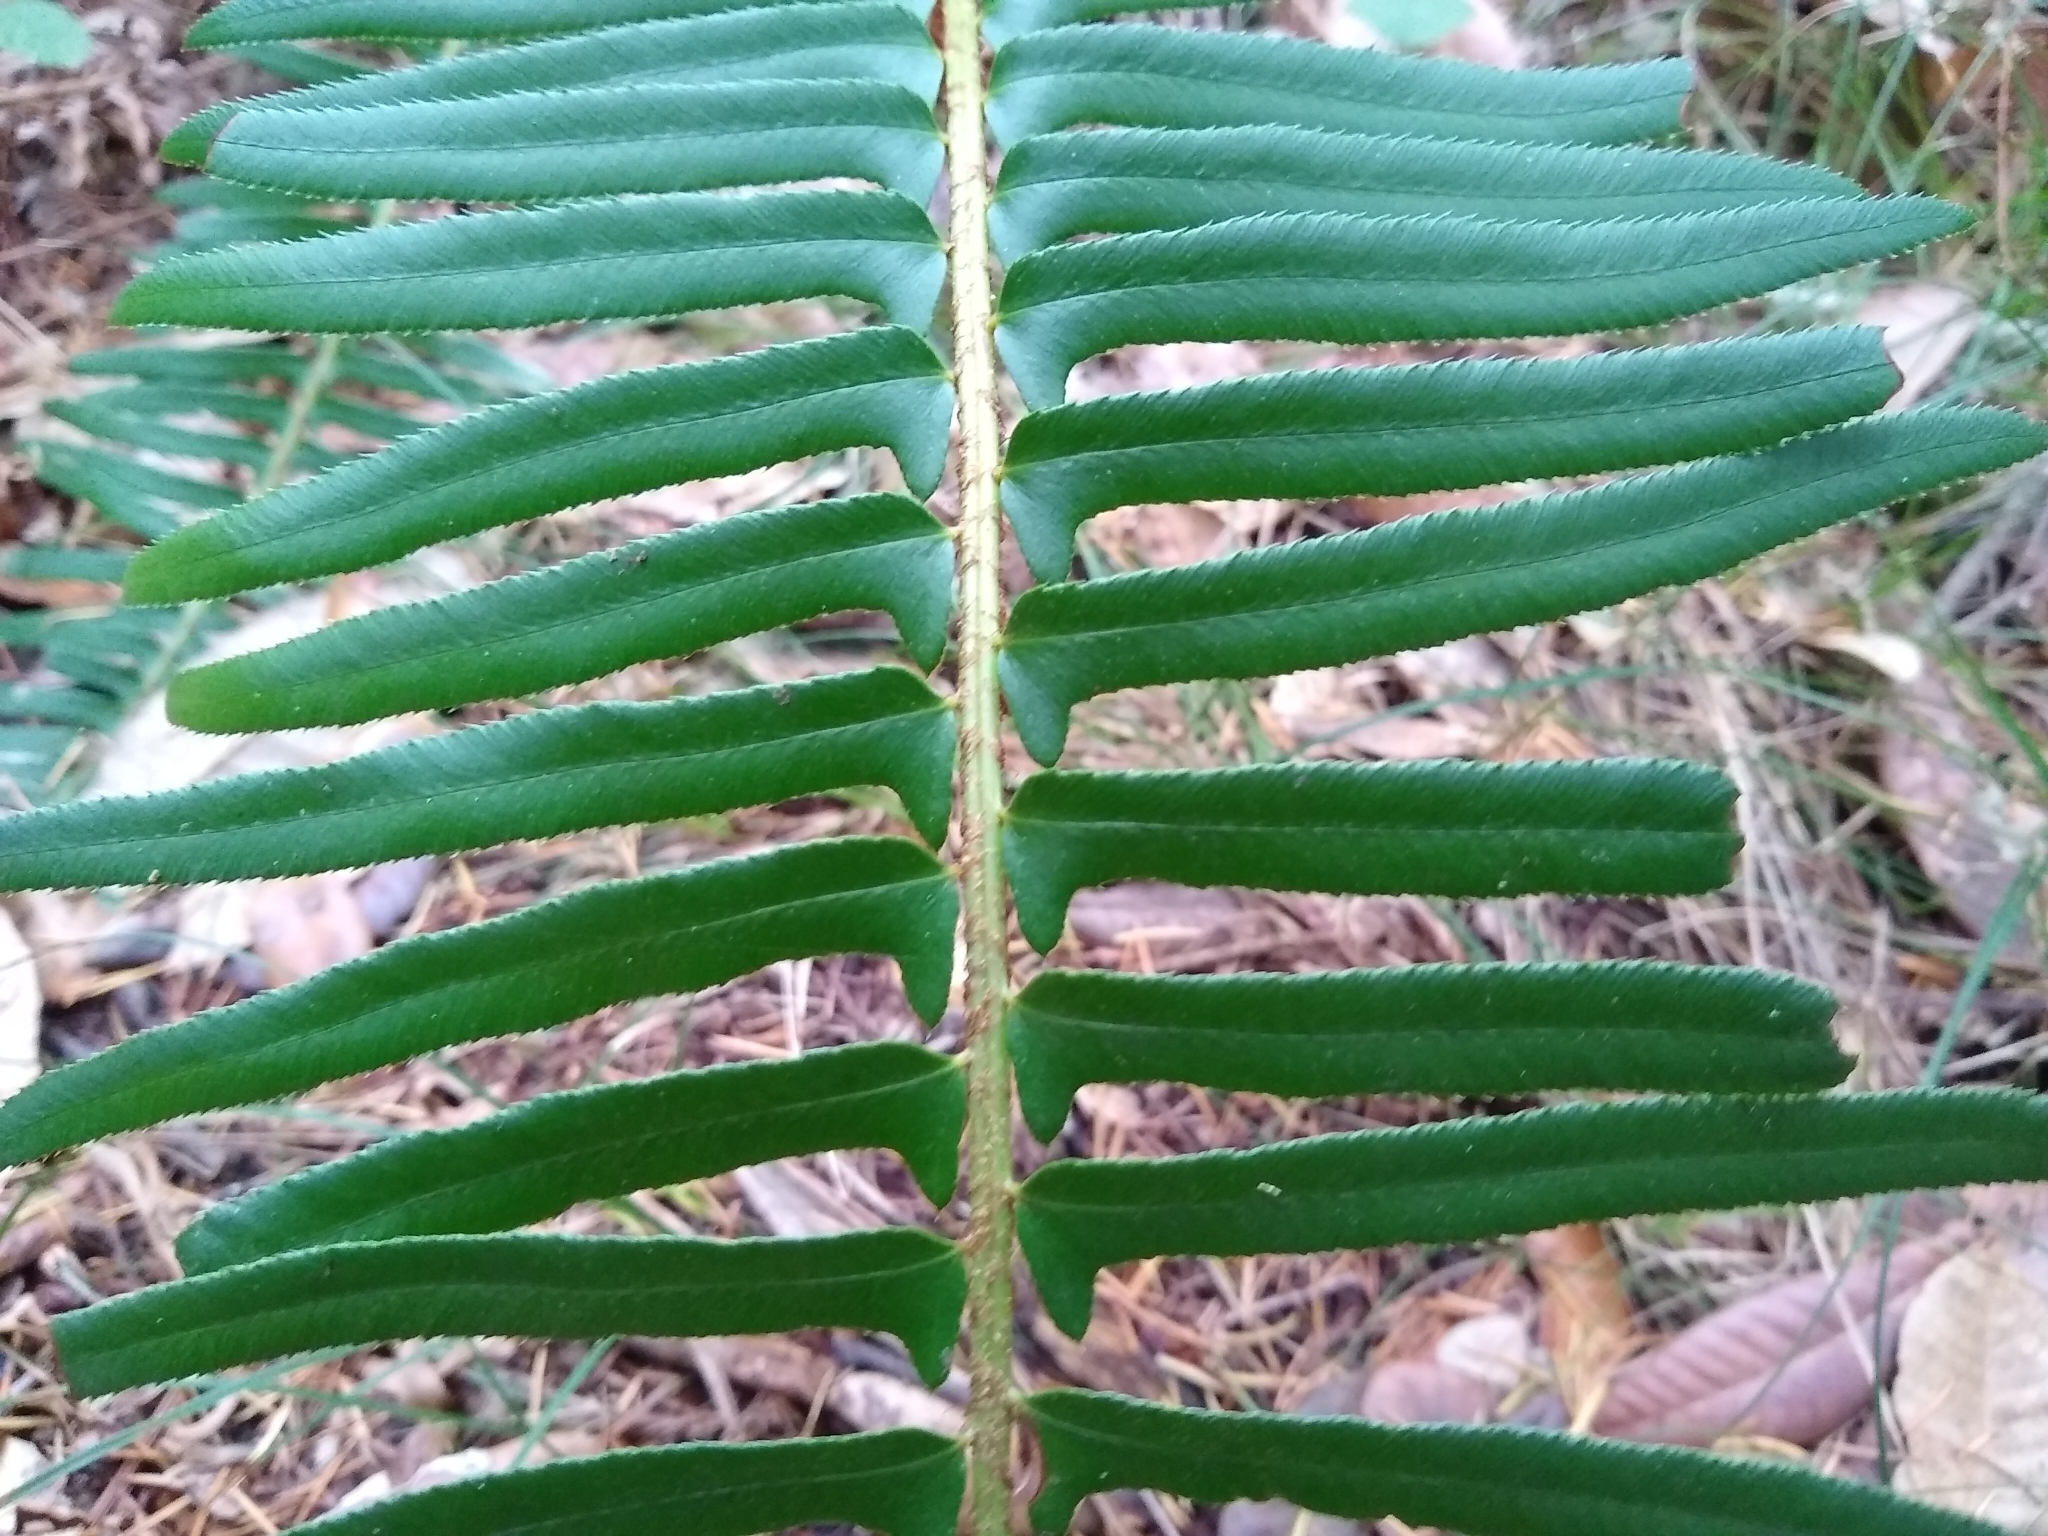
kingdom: Plantae
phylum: Tracheophyta
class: Polypodiopsida
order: Polypodiales
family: Dryopteridaceae
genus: Polystichum
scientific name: Polystichum munitum
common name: Western sword-fern
